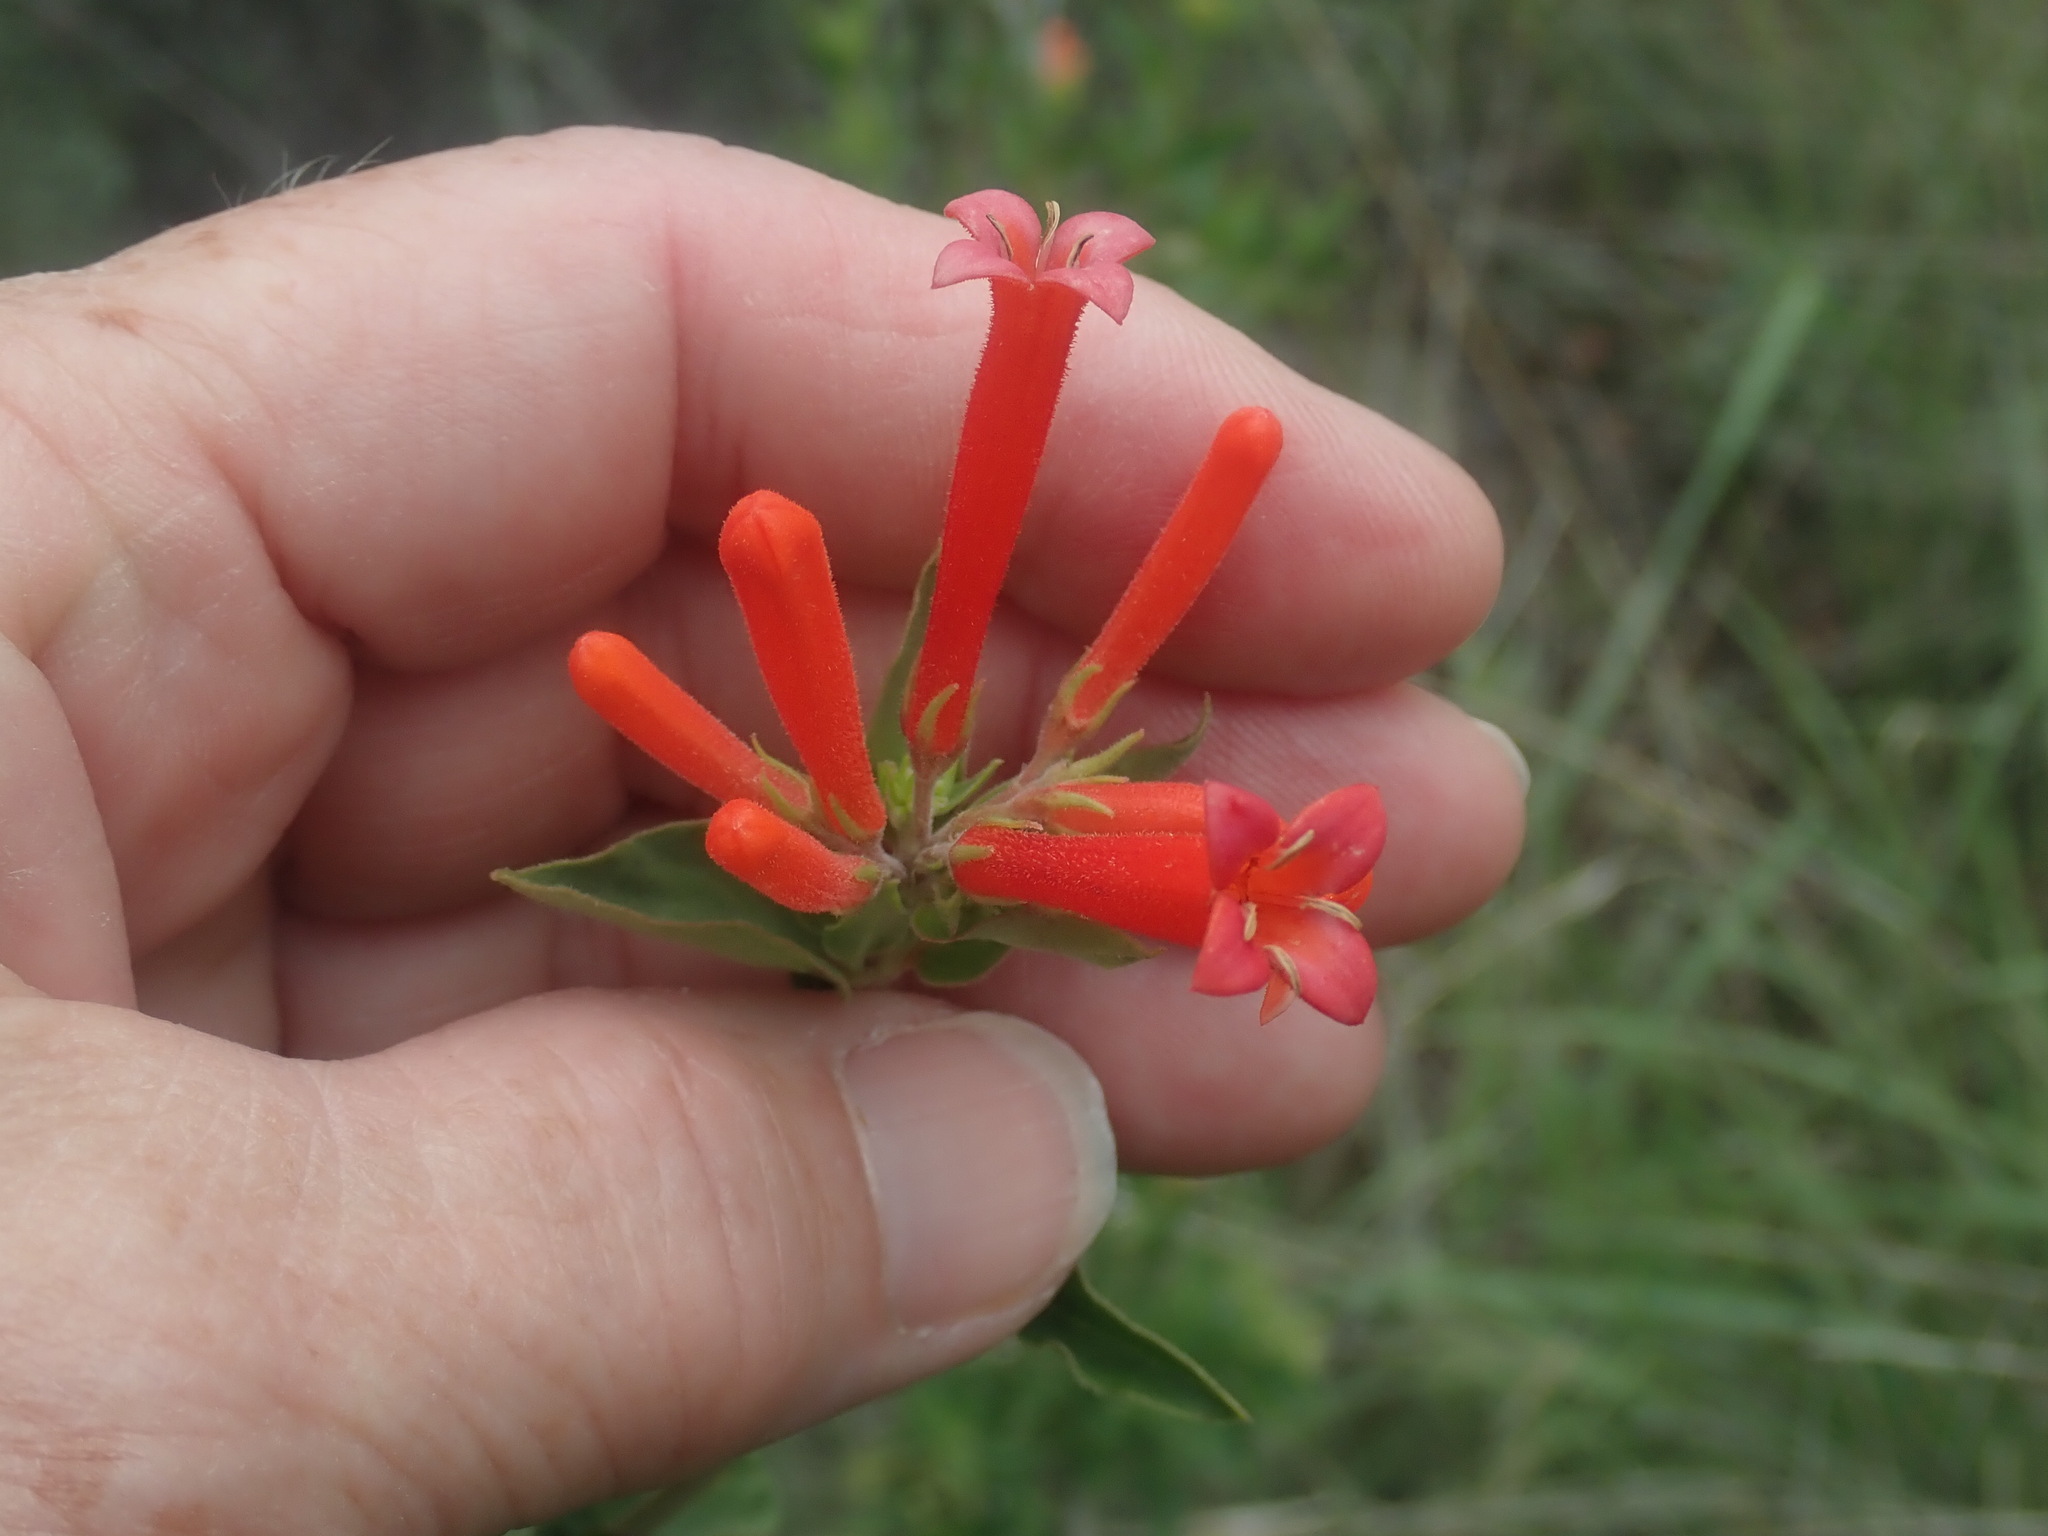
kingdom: Plantae
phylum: Tracheophyta
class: Magnoliopsida
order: Gentianales
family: Rubiaceae
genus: Bouvardia
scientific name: Bouvardia ternifolia
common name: Scarlet bouvardia
